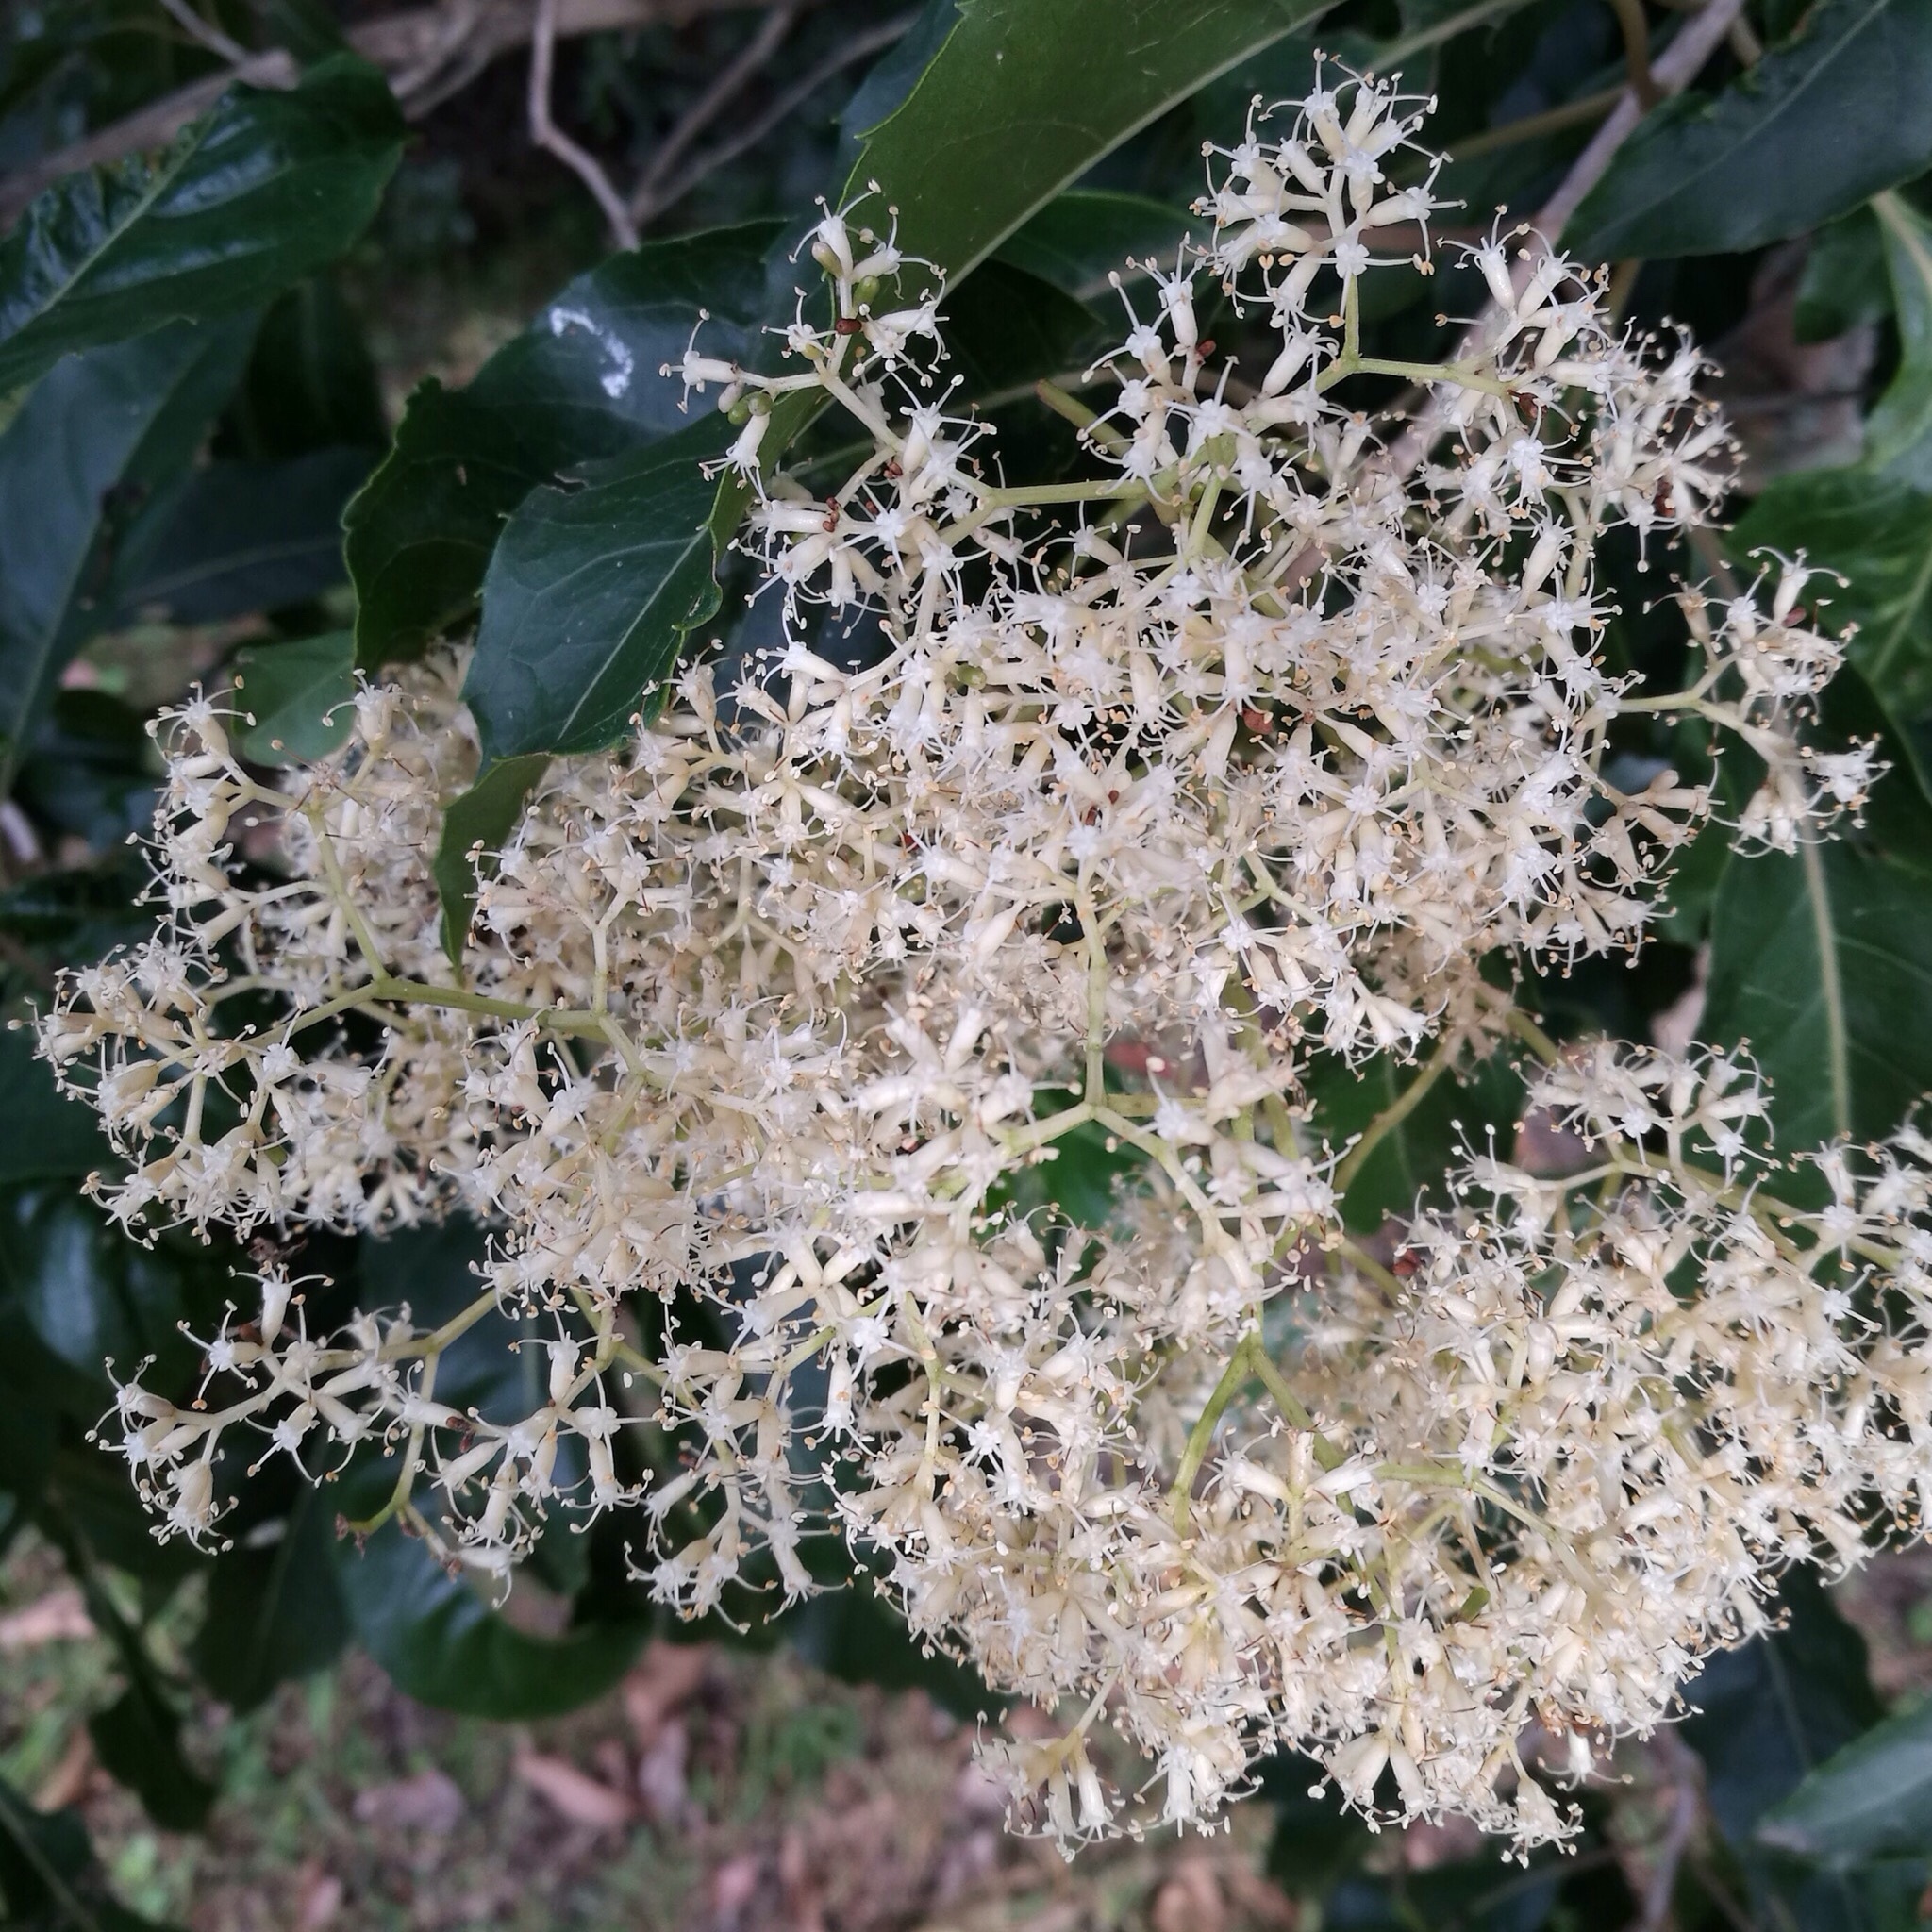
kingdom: Plantae
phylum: Tracheophyta
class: Magnoliopsida
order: Lamiales
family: Stilbaceae
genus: Nuxia
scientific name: Nuxia floribunda
